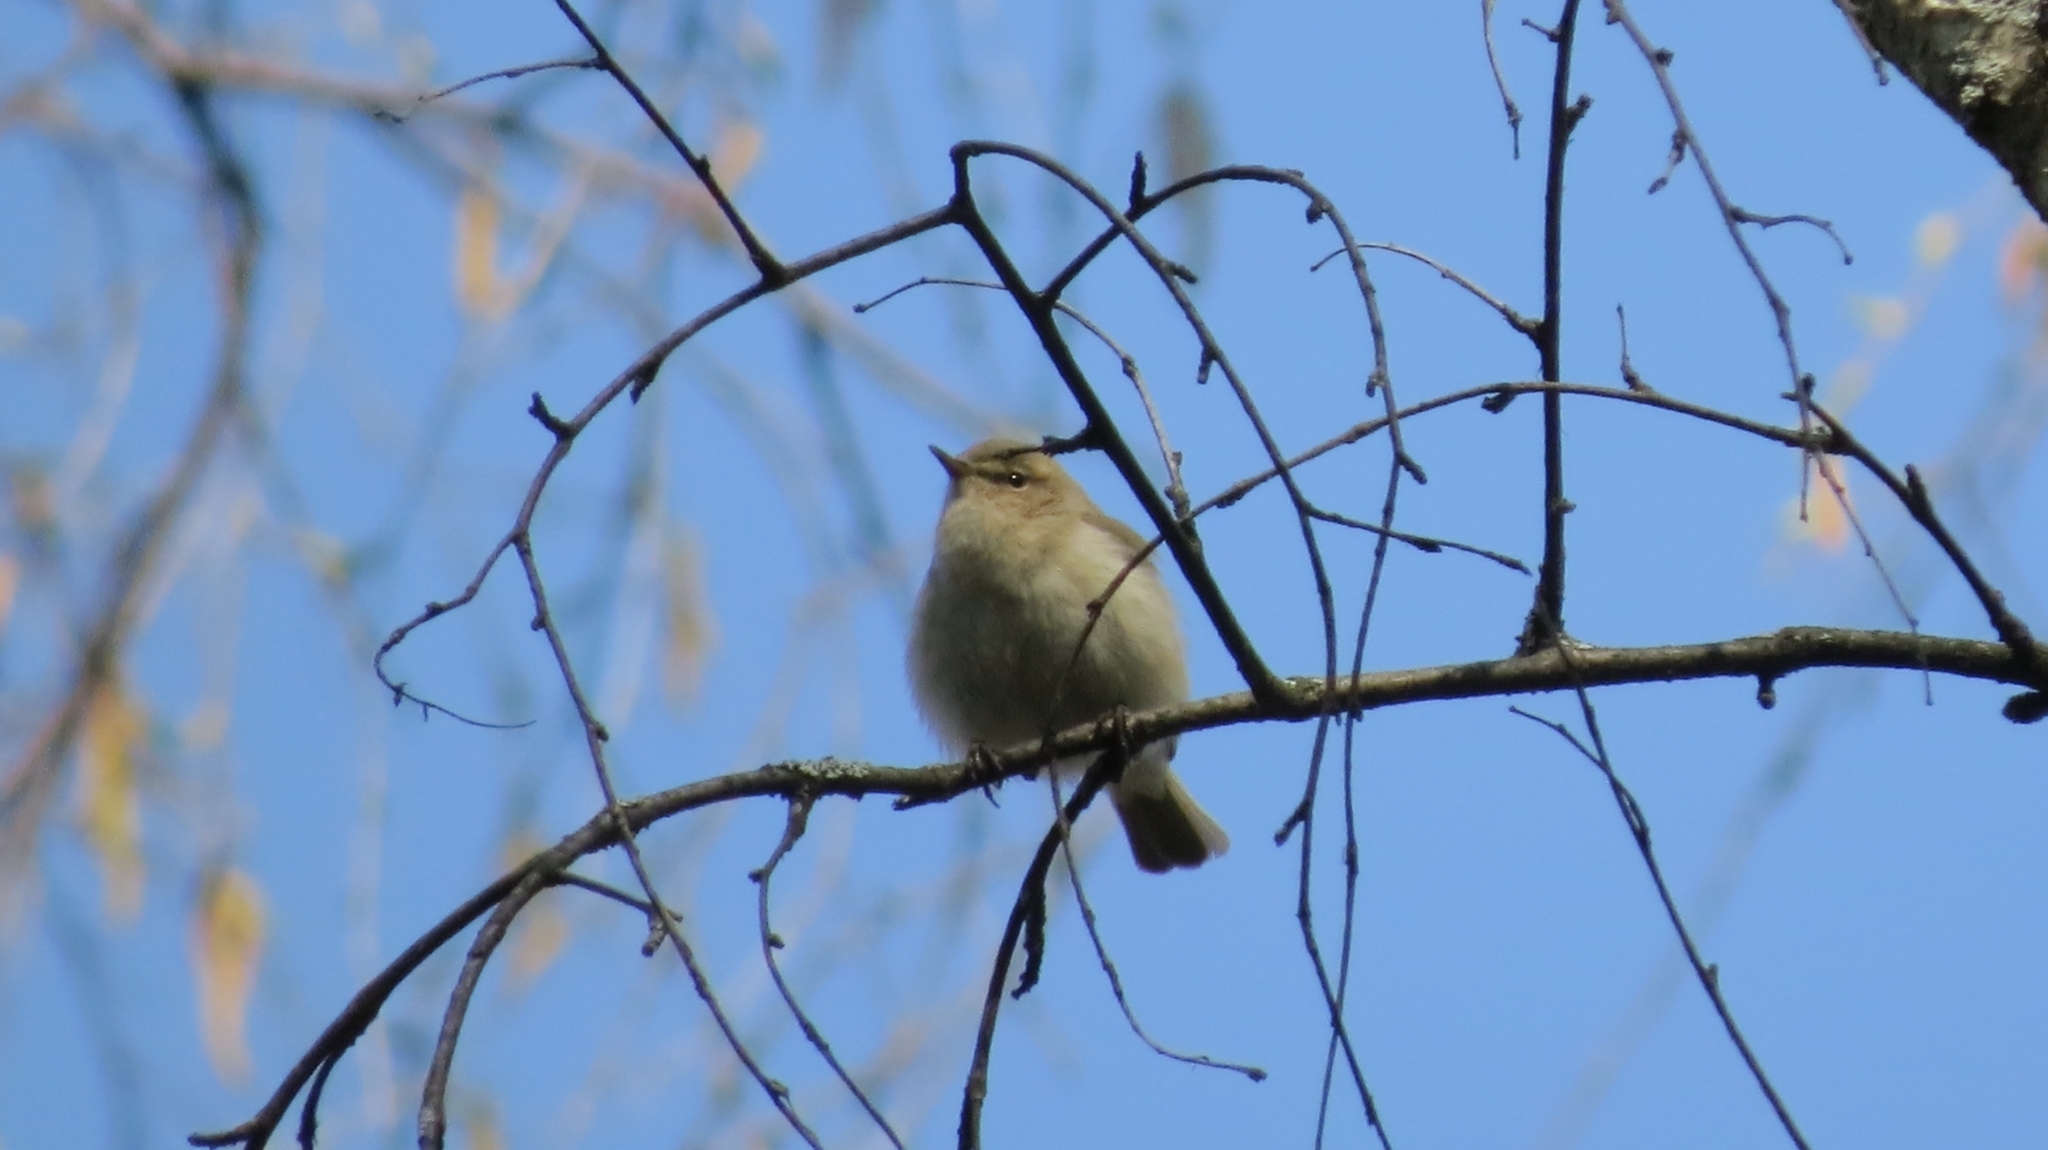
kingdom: Animalia
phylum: Chordata
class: Aves
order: Passeriformes
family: Phylloscopidae
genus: Phylloscopus
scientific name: Phylloscopus collybita
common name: Common chiffchaff
